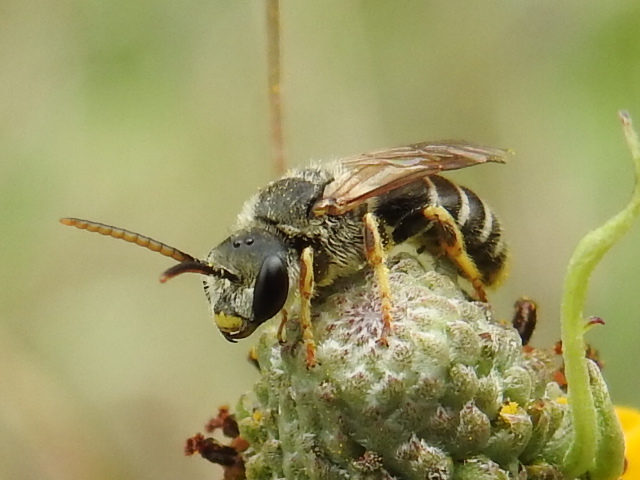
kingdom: Animalia
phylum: Arthropoda
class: Insecta
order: Hymenoptera
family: Halictidae
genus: Halictus
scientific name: Halictus ligatus
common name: Ligated furrow bee
